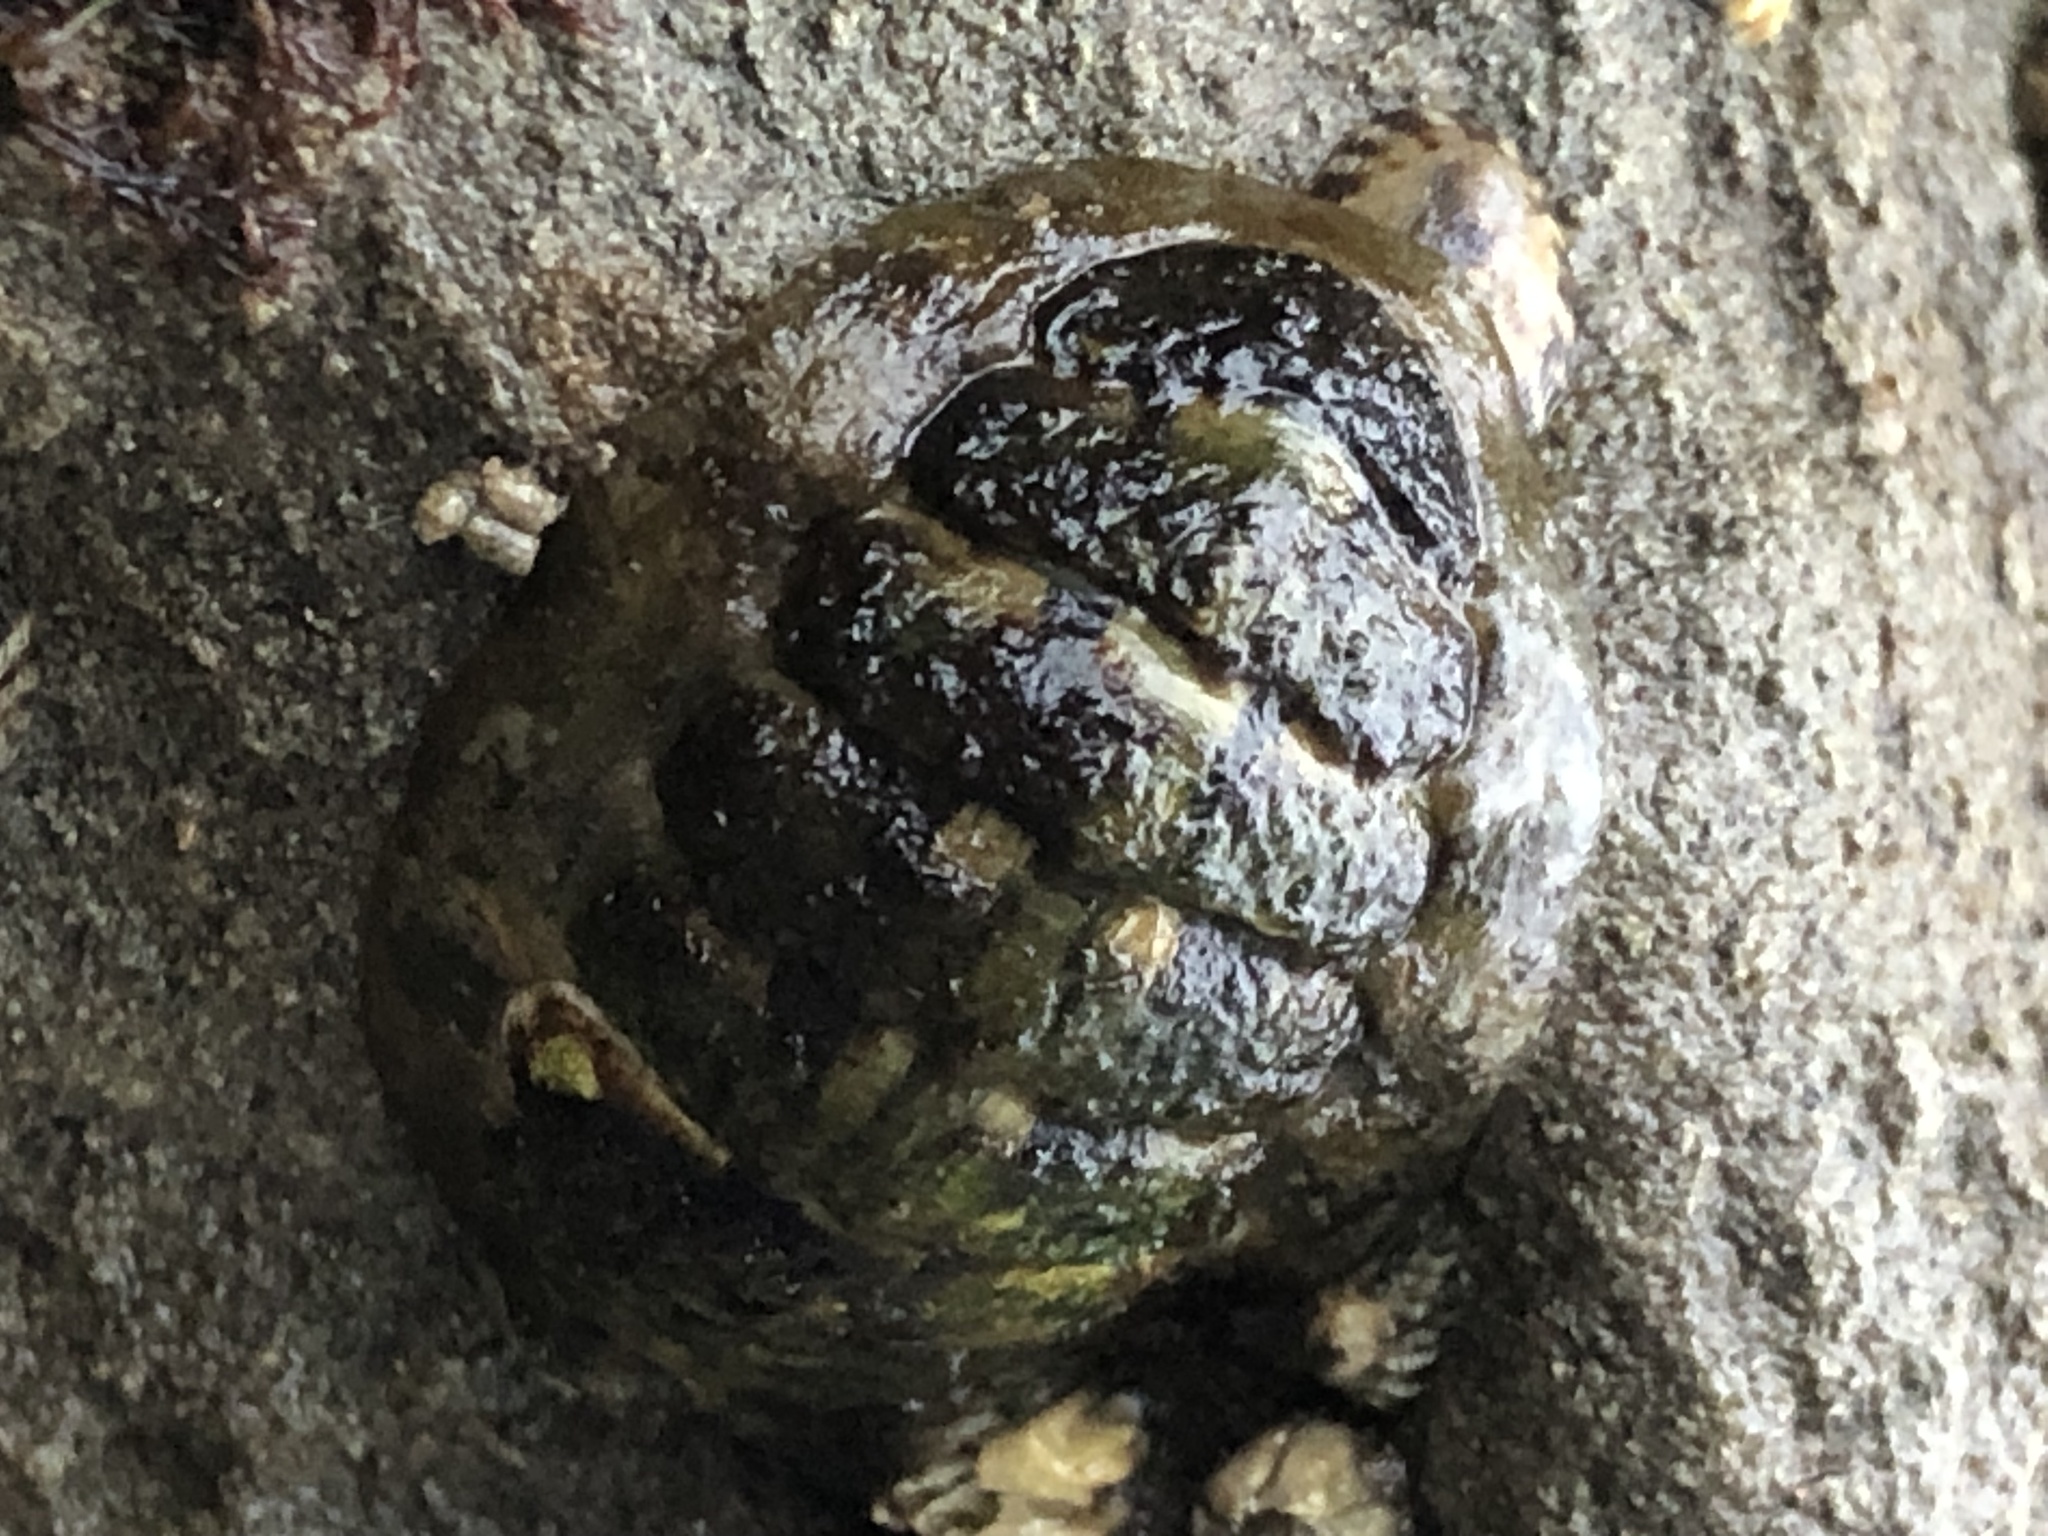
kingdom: Animalia
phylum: Mollusca
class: Polyplacophora
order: Chitonida
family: Tonicellidae
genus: Cyanoplax
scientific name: Cyanoplax hartwegii
